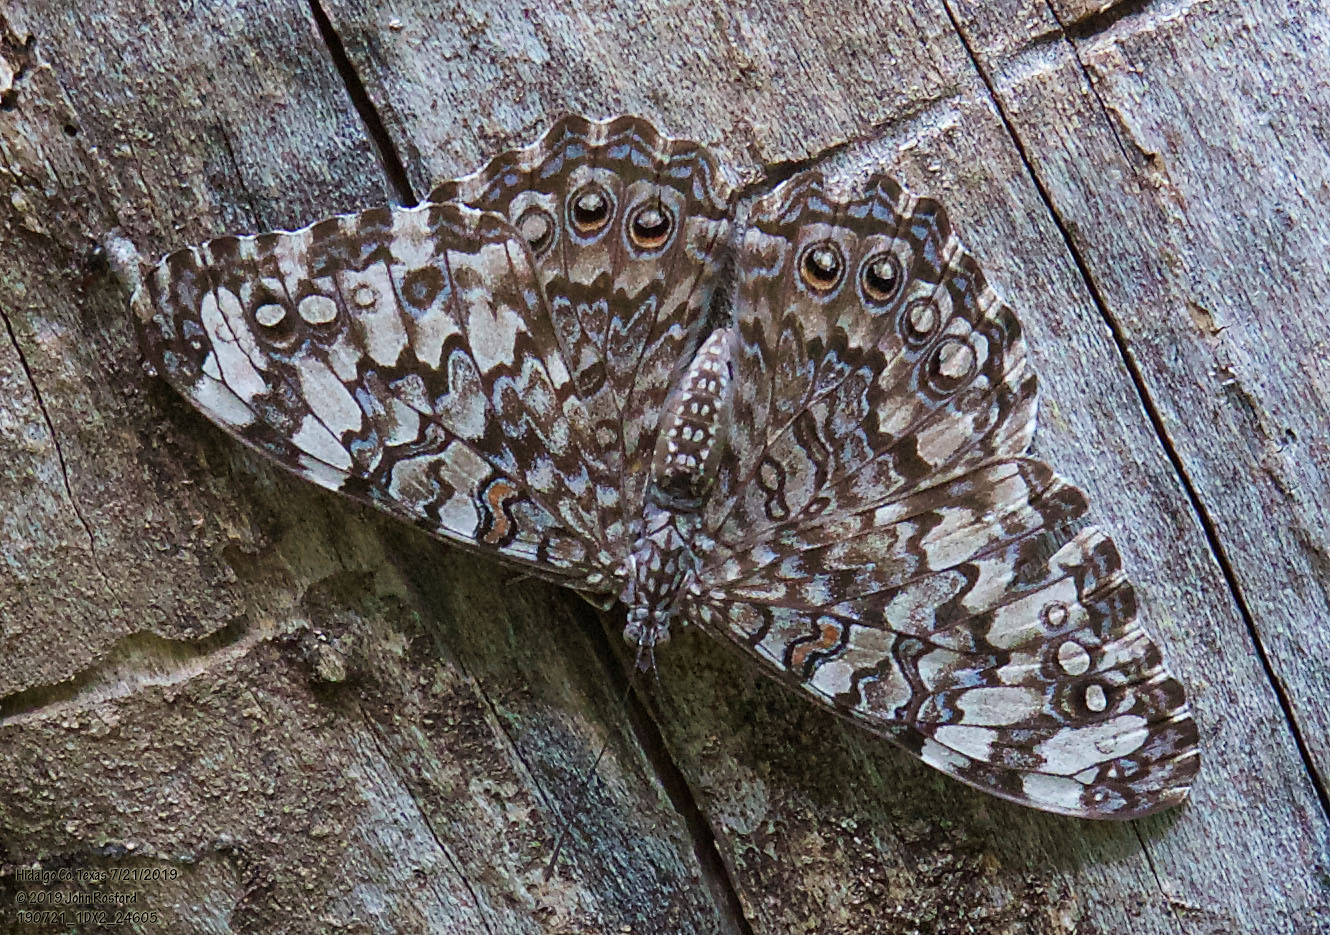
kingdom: Animalia
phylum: Arthropoda
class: Insecta
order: Lepidoptera
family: Nymphalidae
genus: Hamadryas
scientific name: Hamadryas februa
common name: Gray cracker
